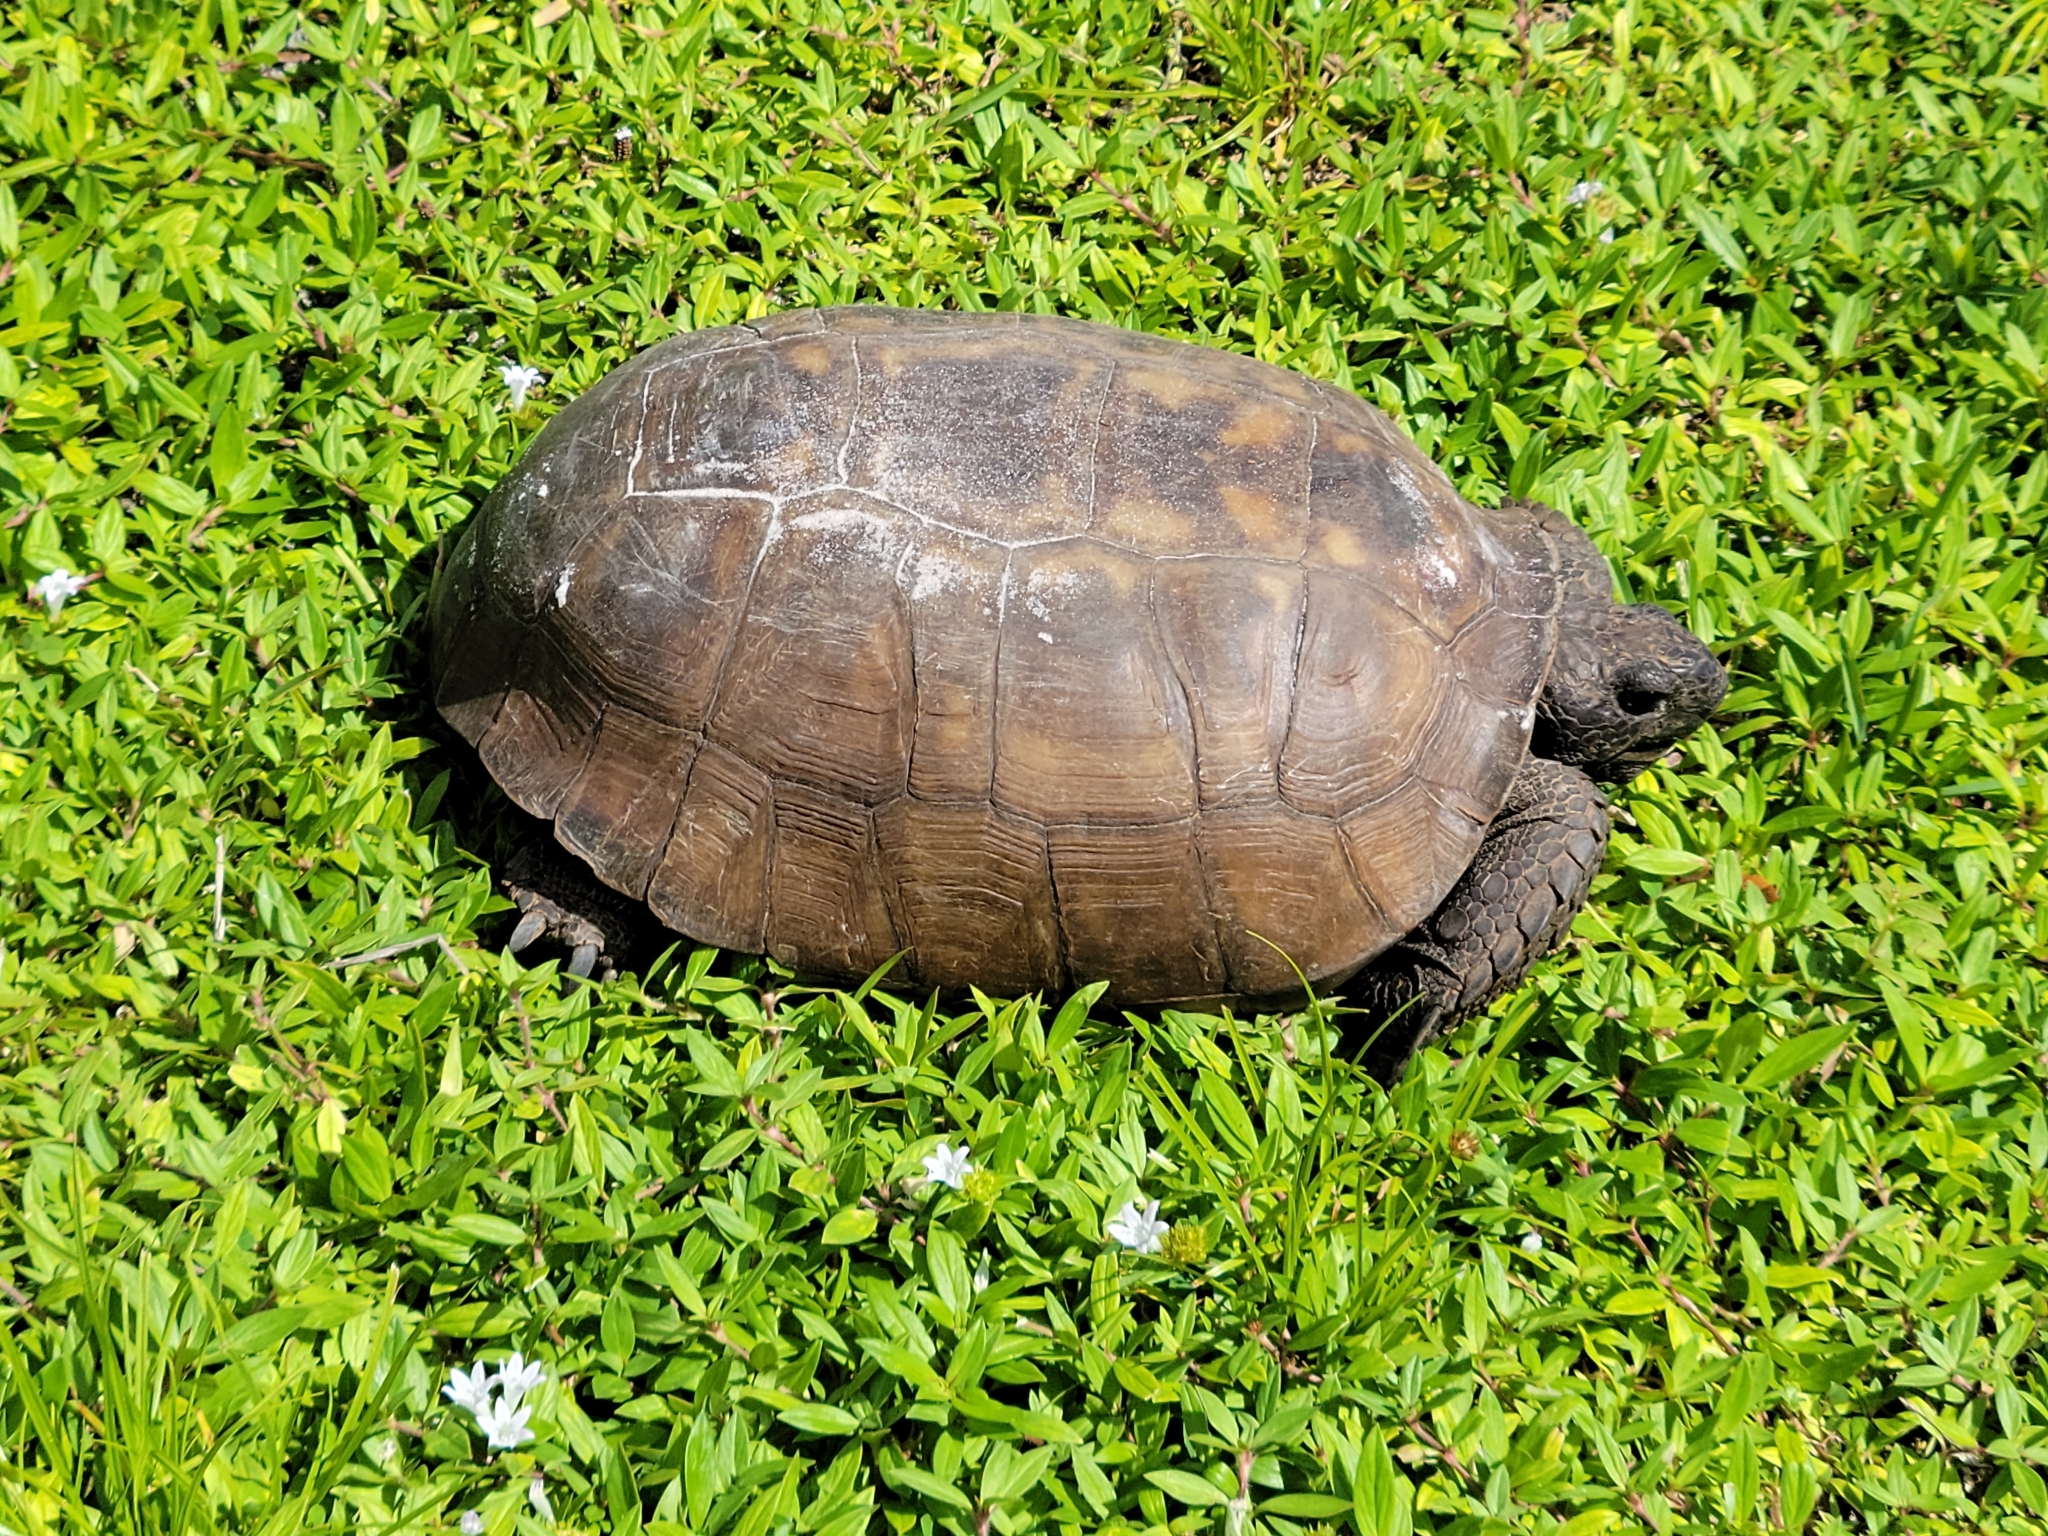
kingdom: Animalia
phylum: Chordata
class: Testudines
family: Testudinidae
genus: Gopherus
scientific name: Gopherus polyphemus
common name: Florida gopher tortoise
